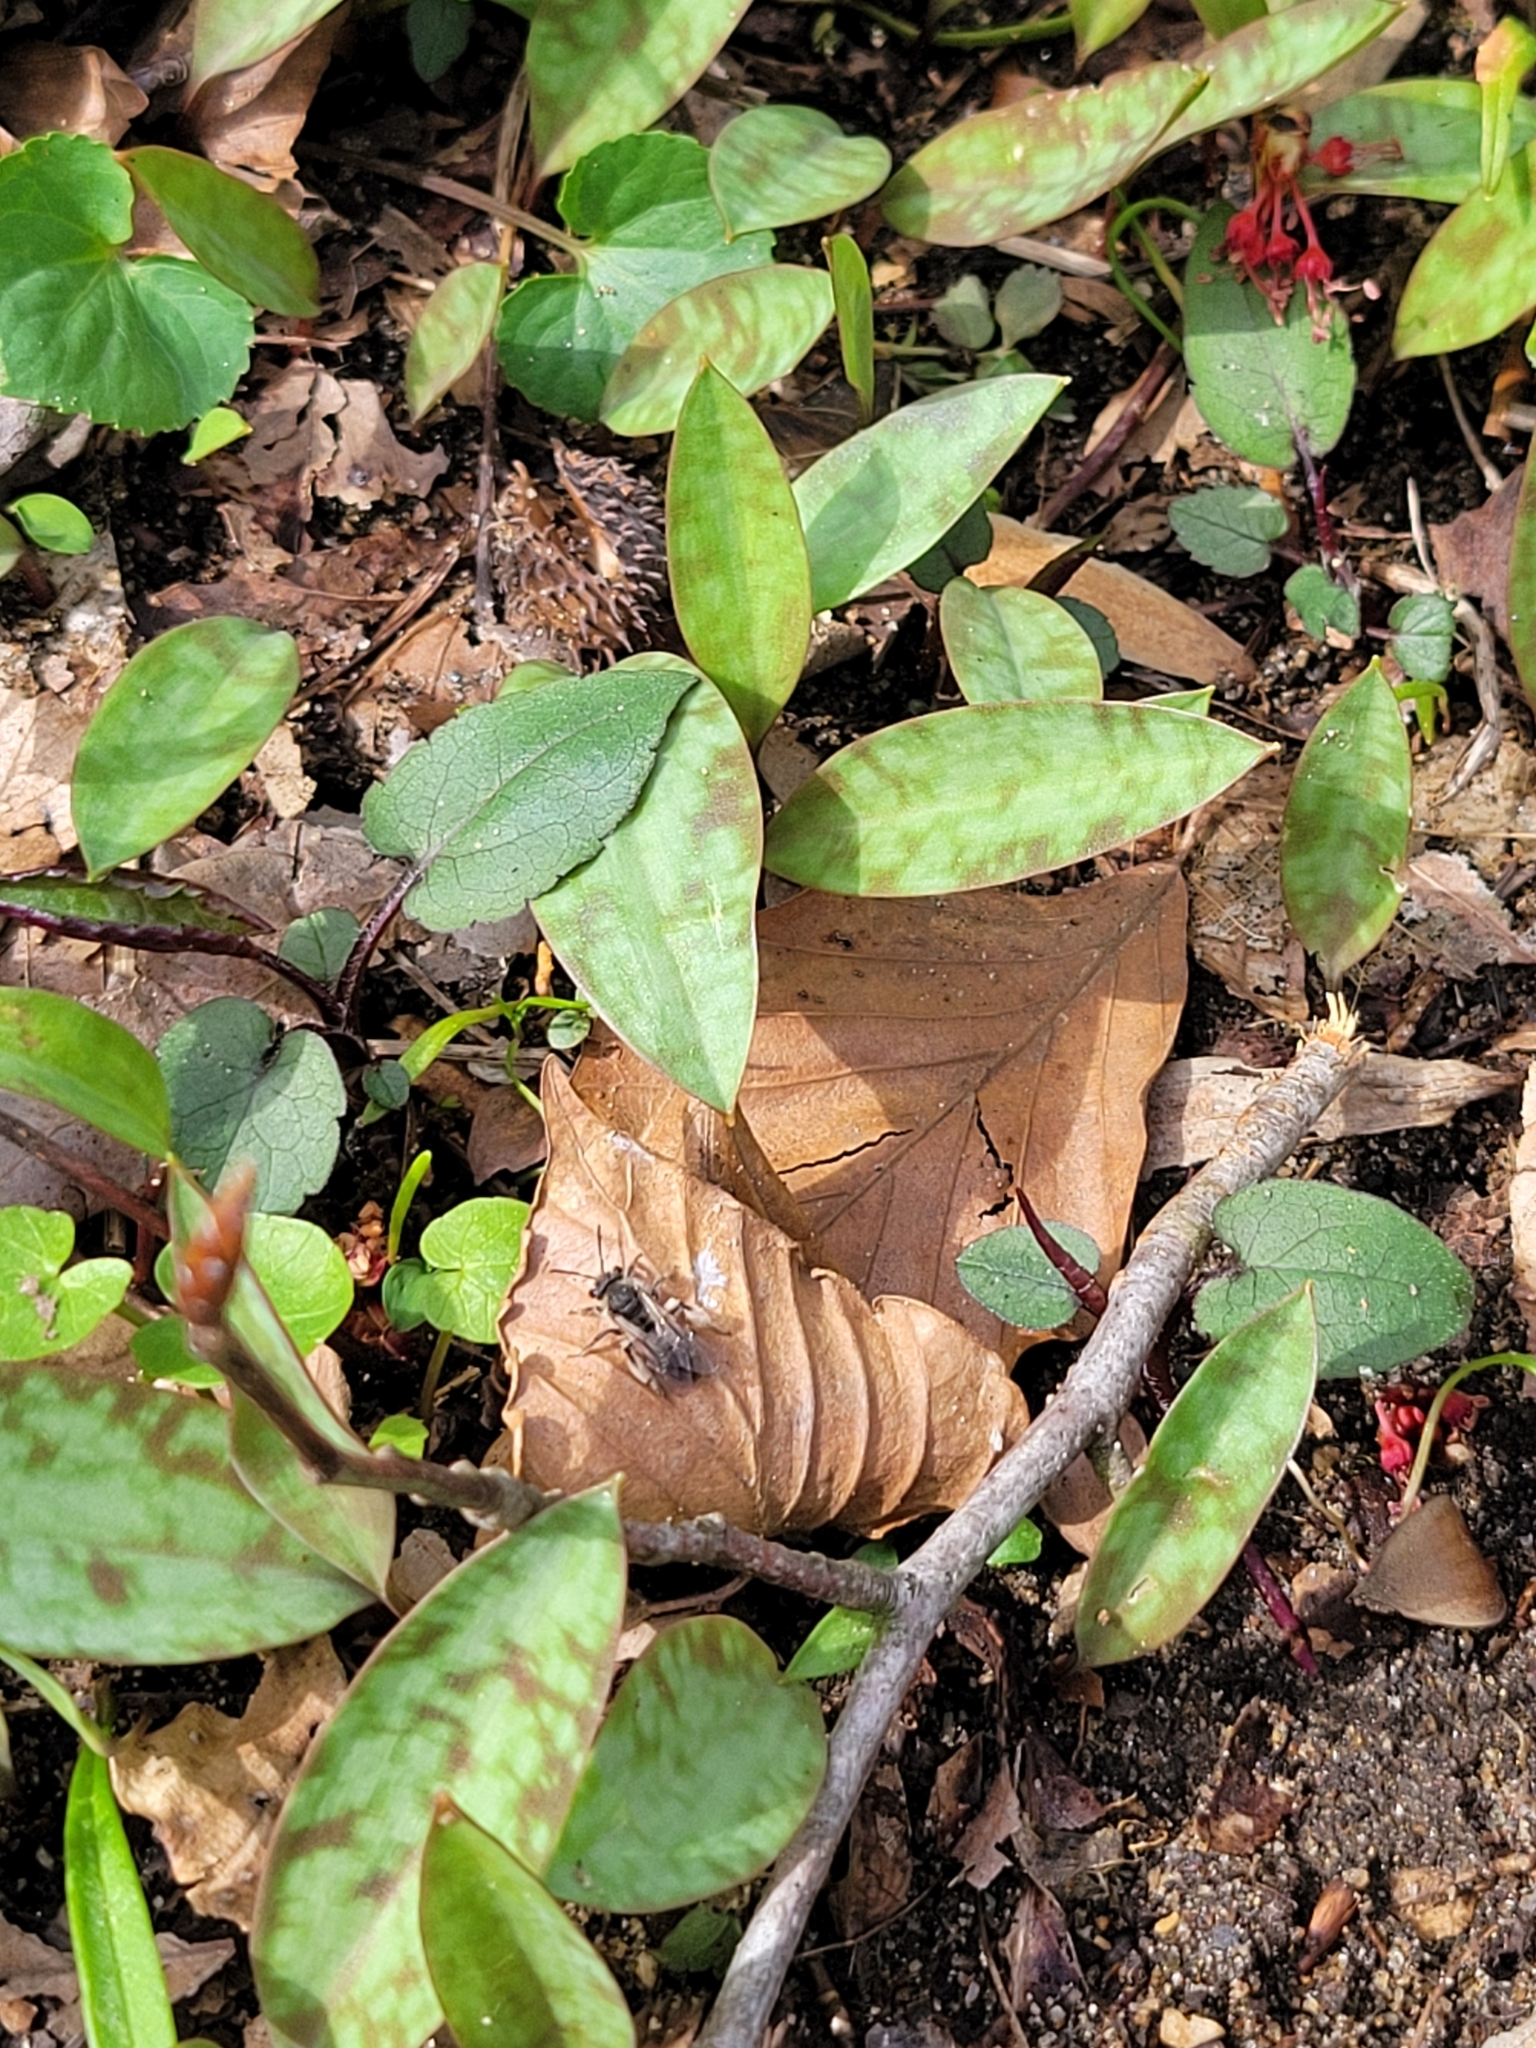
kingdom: Animalia
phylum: Arthropoda
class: Insecta
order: Hymenoptera
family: Andrenidae
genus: Andrena
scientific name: Andrena erigeniae
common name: Spring beauty miner
